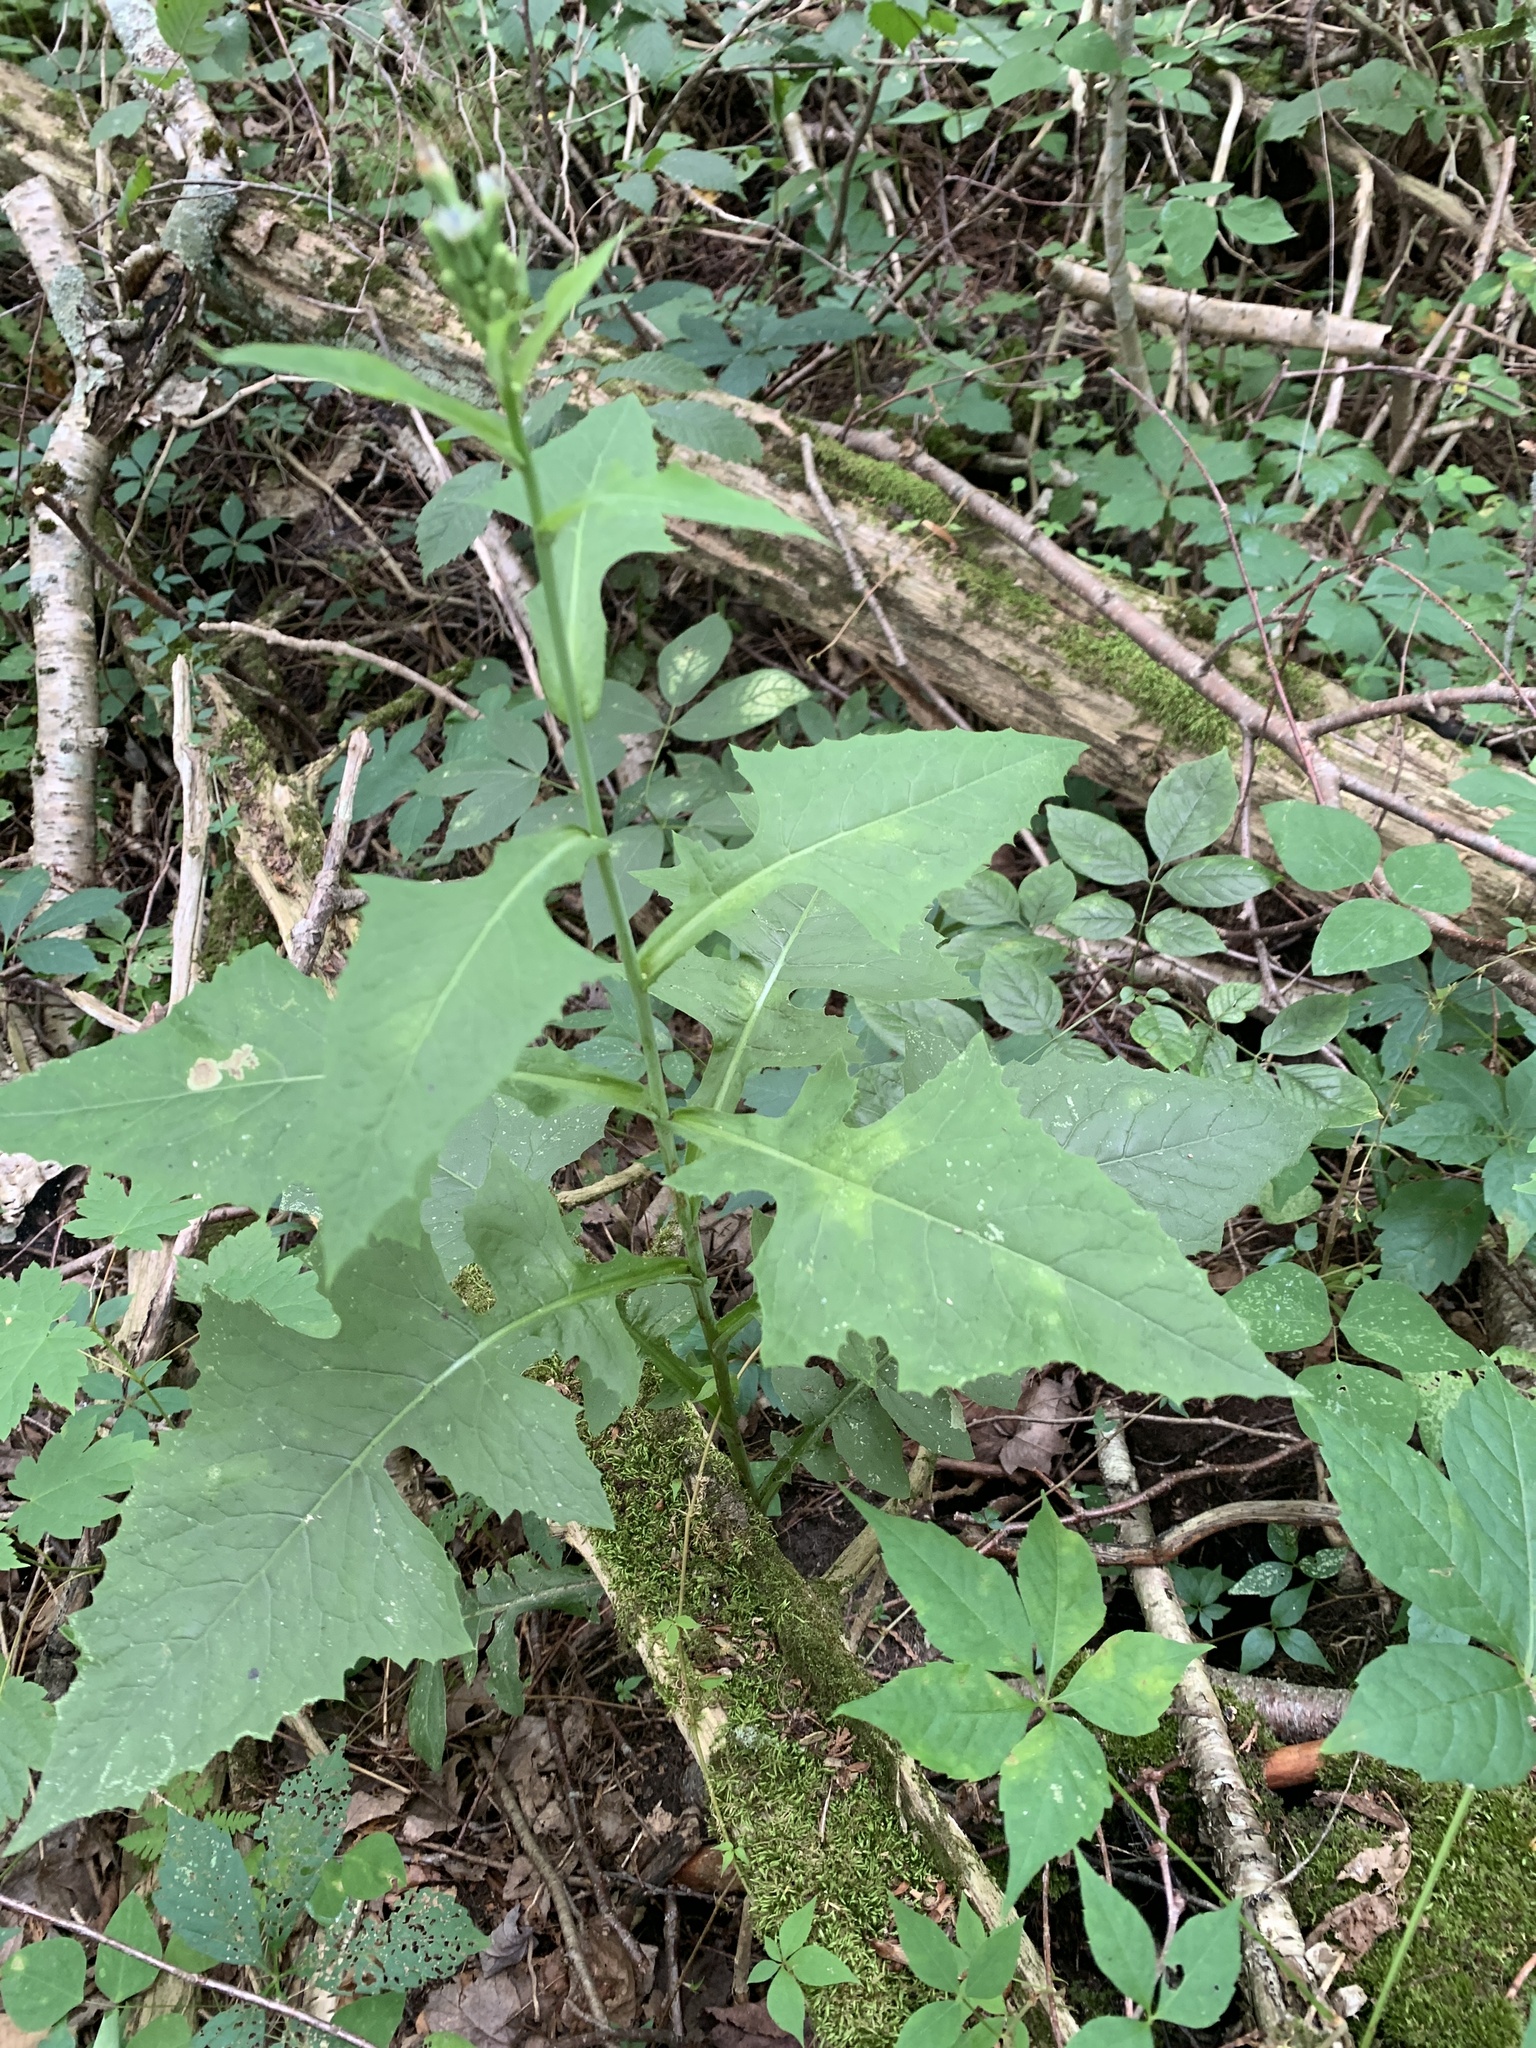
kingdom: Plantae
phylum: Tracheophyta
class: Magnoliopsida
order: Asterales
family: Asteraceae
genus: Lactuca
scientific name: Lactuca biennis
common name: Blue wood lettuce
